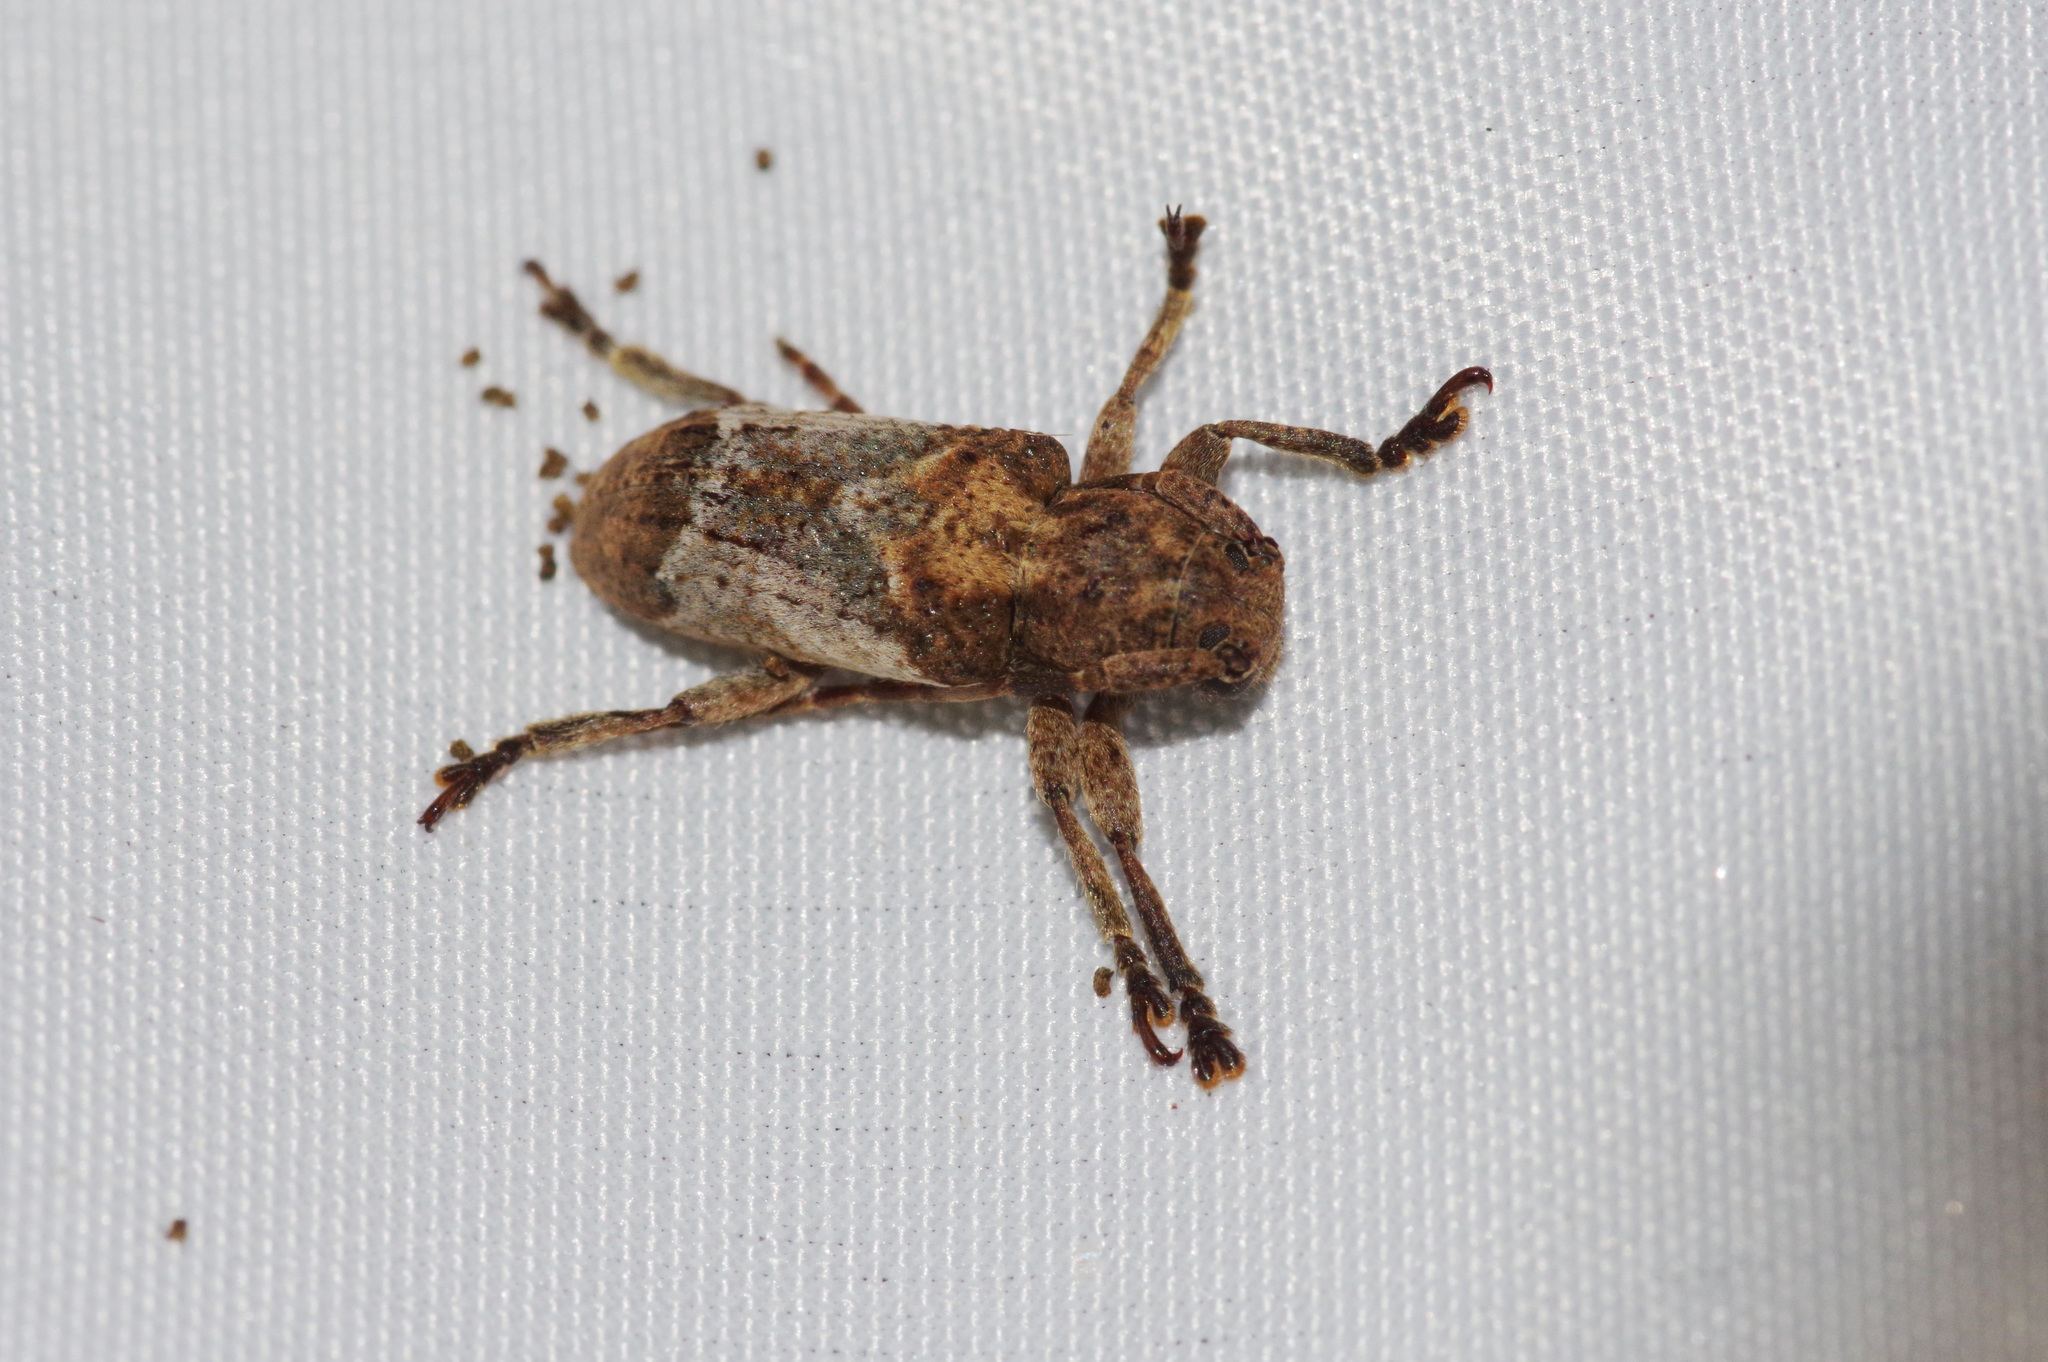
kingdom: Animalia
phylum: Arthropoda
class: Insecta
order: Coleoptera
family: Cerambycidae
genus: Pterolophia
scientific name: Pterolophia annulata
